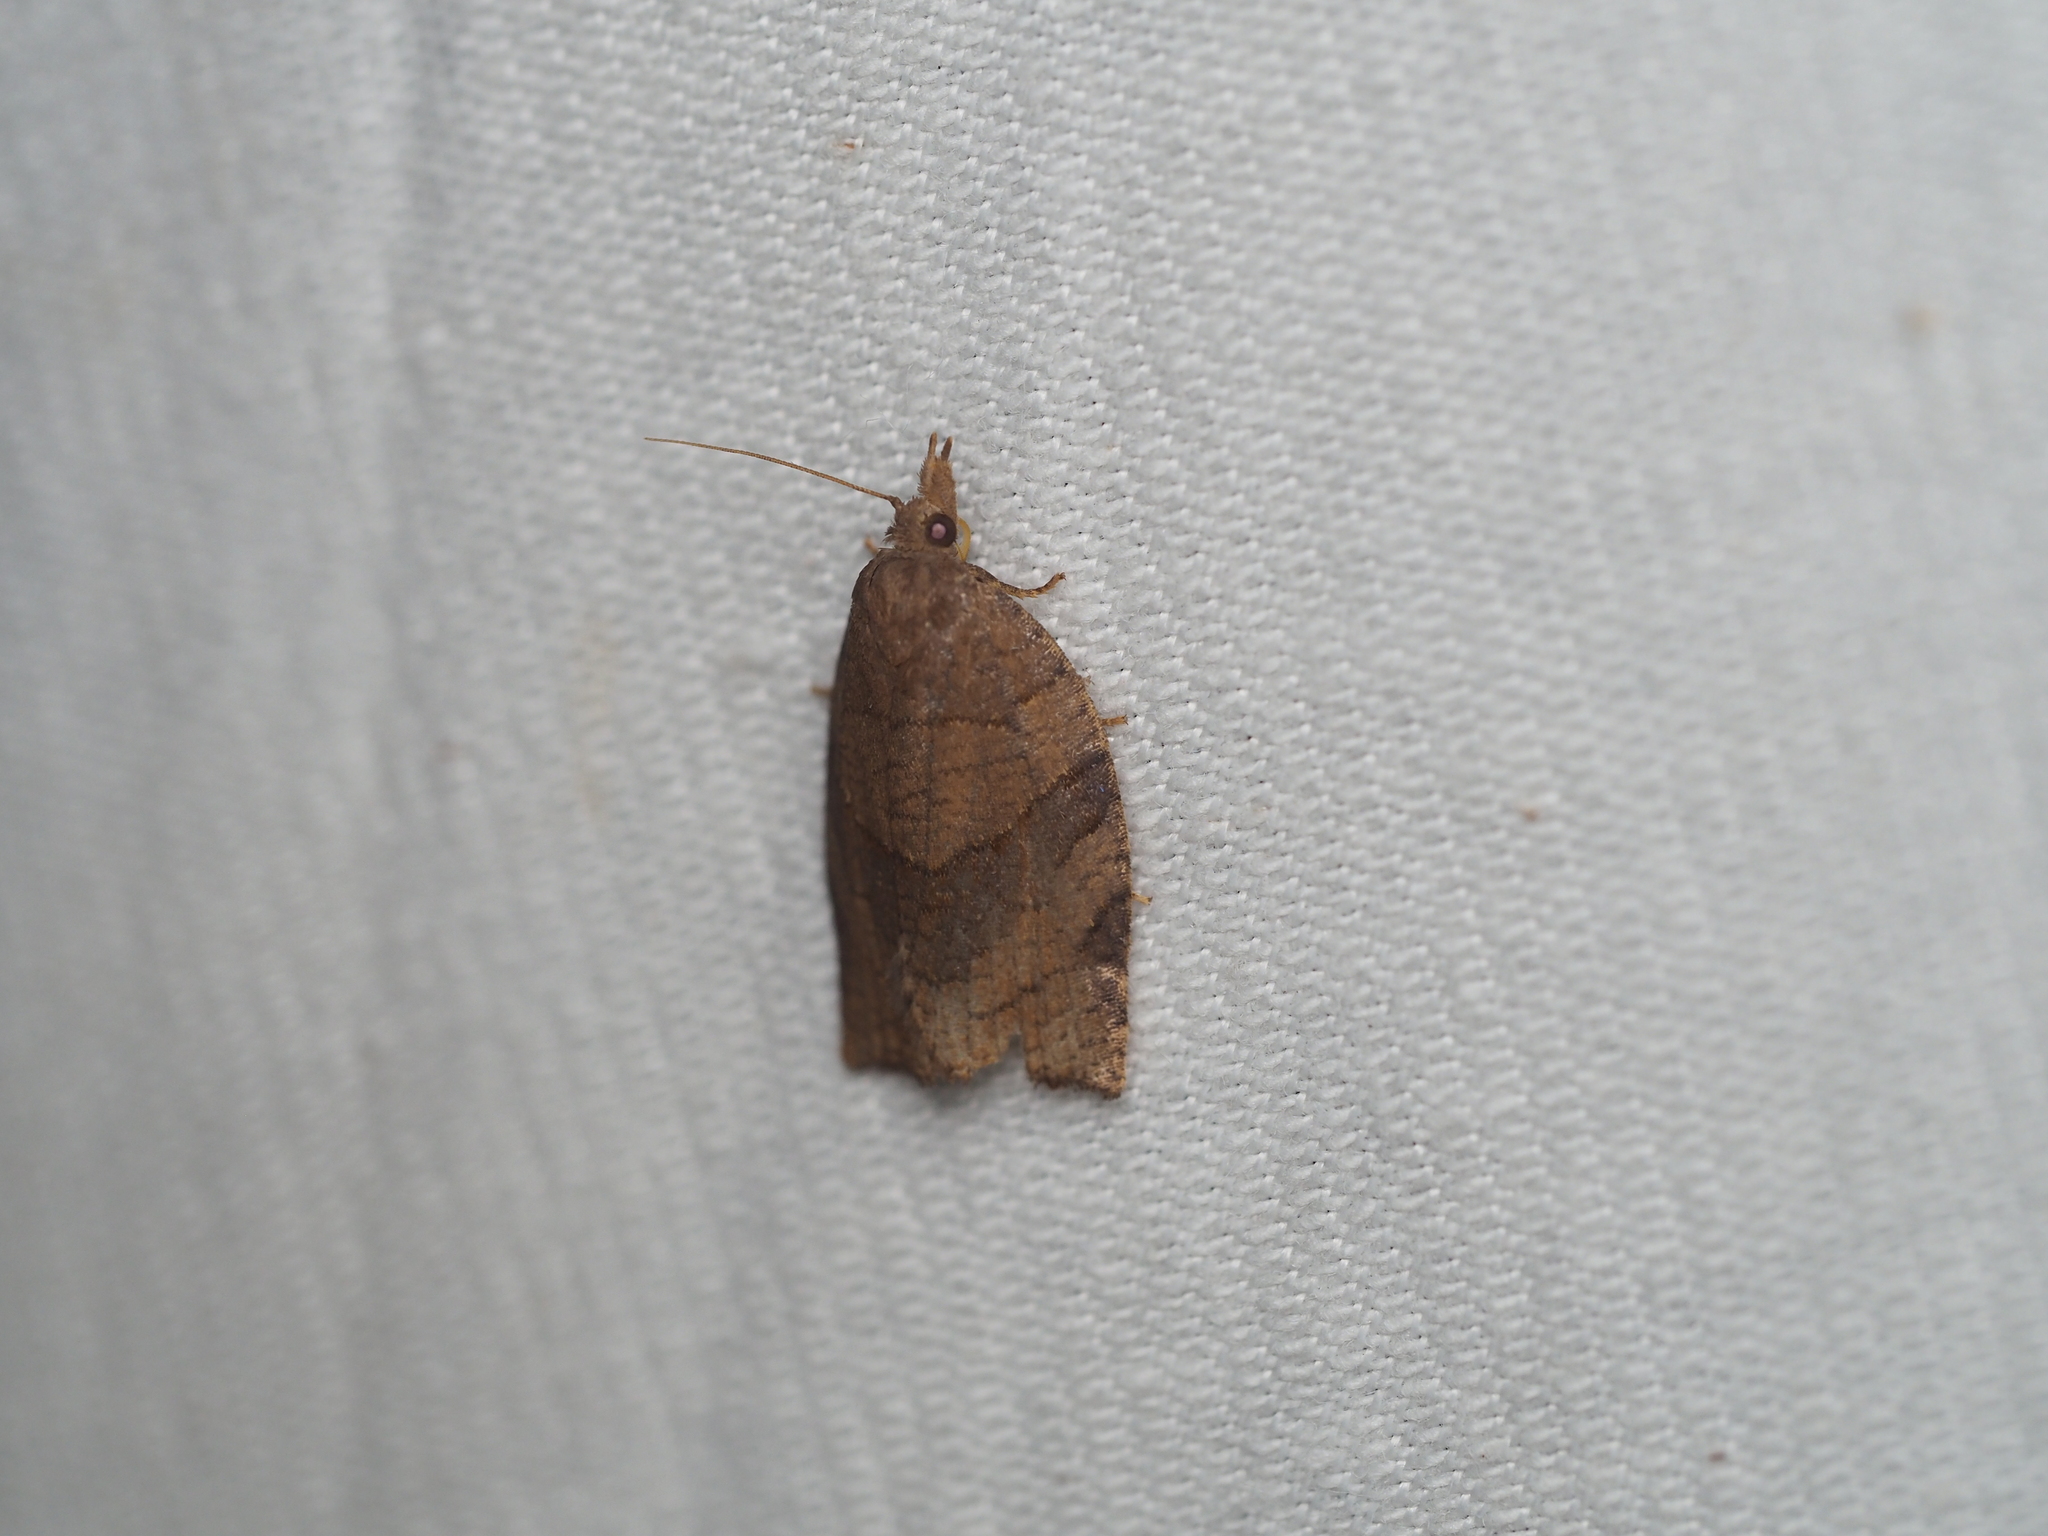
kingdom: Animalia
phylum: Arthropoda
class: Insecta
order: Lepidoptera
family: Tortricidae
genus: Pandemis
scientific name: Pandemis dumetana
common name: Thicket twist
